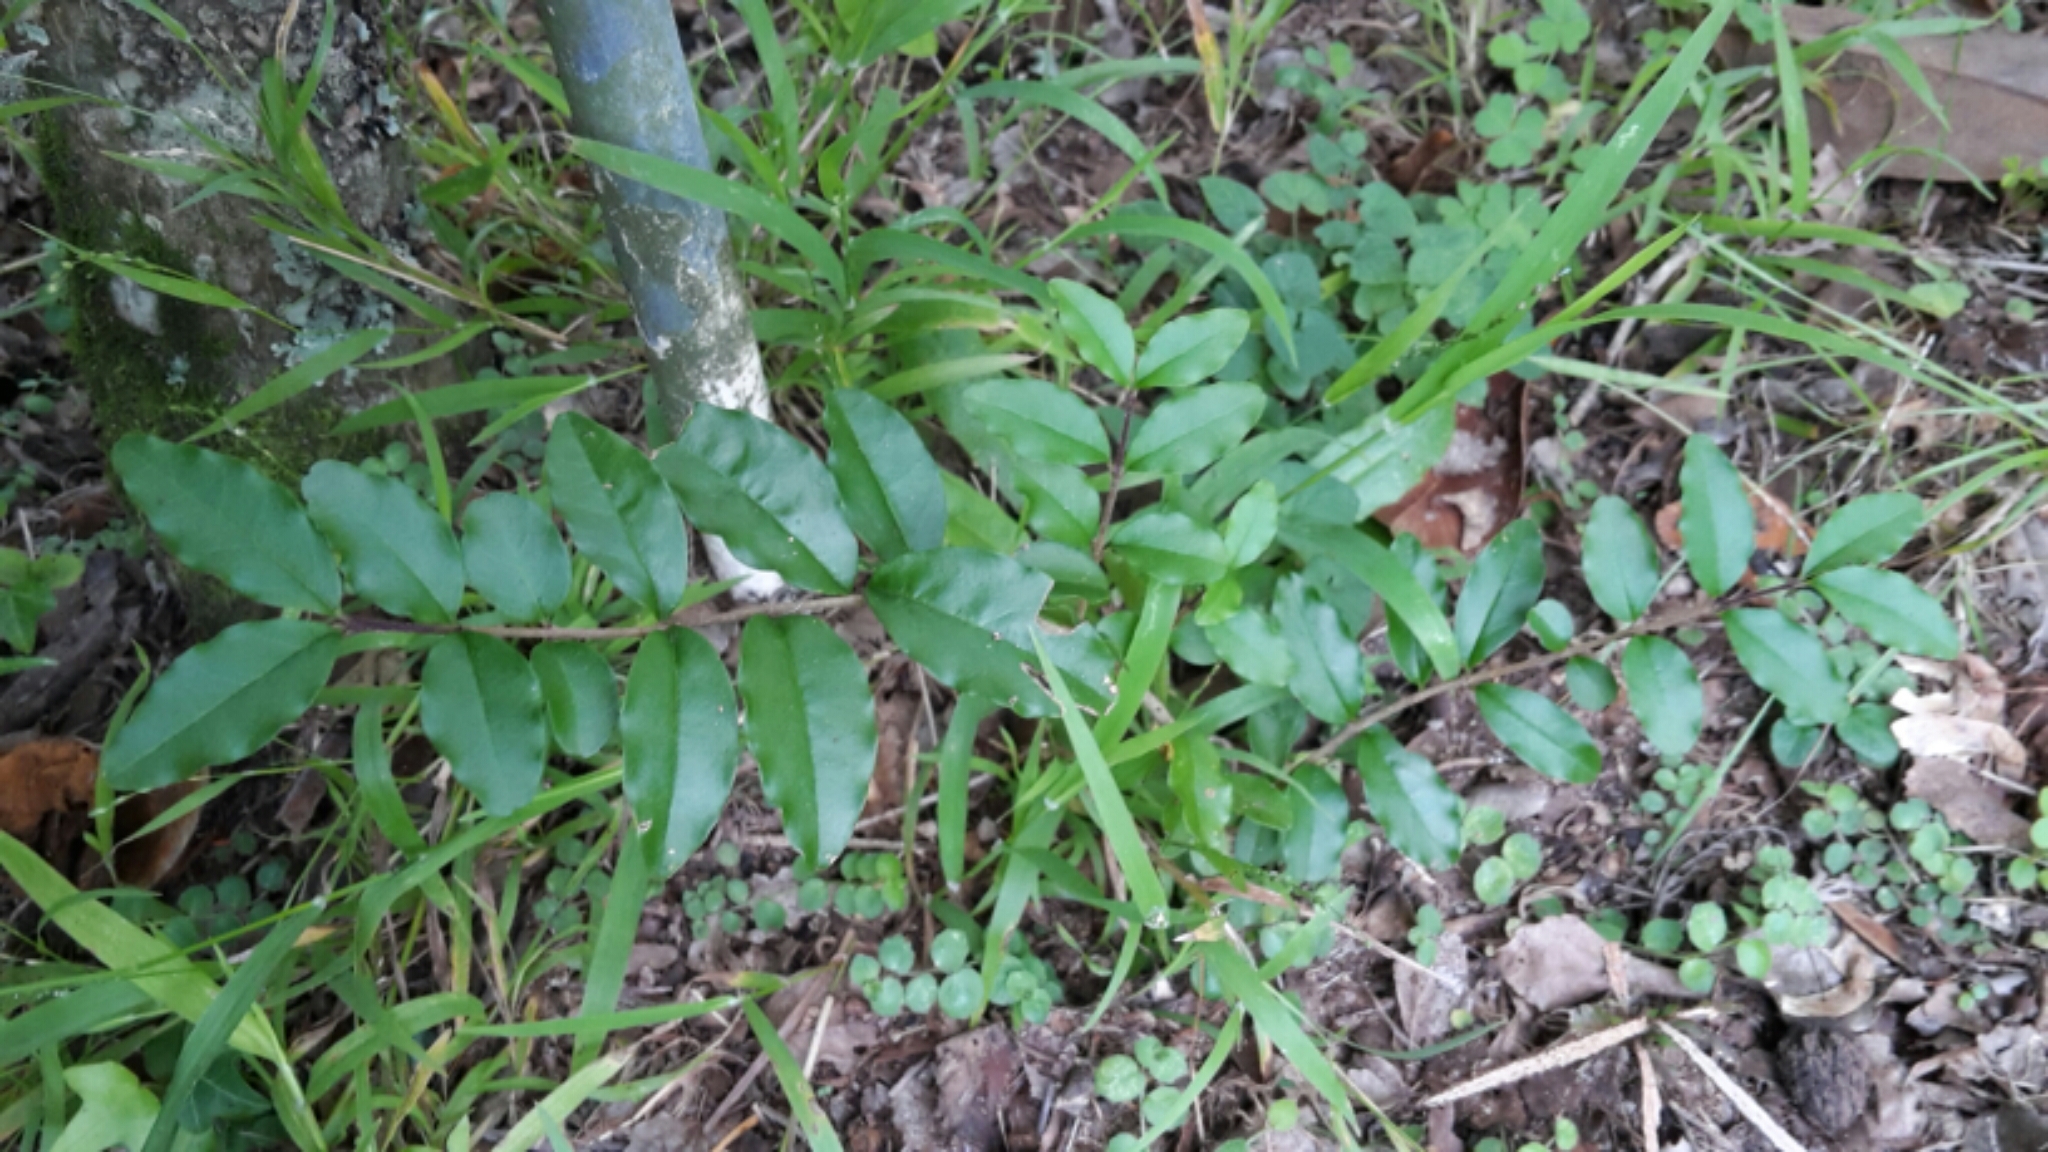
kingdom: Plantae
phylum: Tracheophyta
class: Magnoliopsida
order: Lamiales
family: Oleaceae
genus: Ligustrum
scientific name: Ligustrum sinense
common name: Chinese privet
